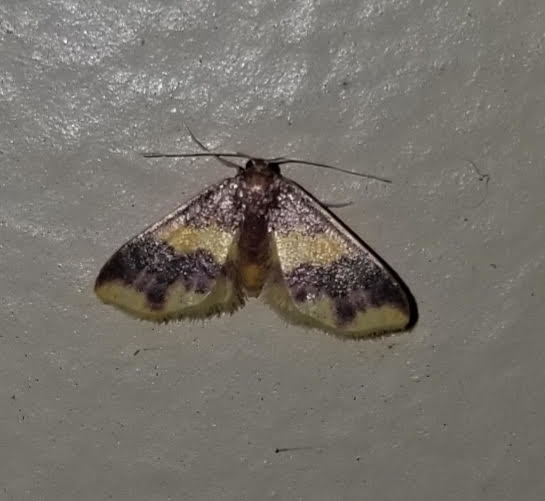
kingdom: Animalia
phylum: Arthropoda
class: Insecta
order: Lepidoptera
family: Geometridae
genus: Lophosis
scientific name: Lophosis labeculata
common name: Stained lophosis moth
